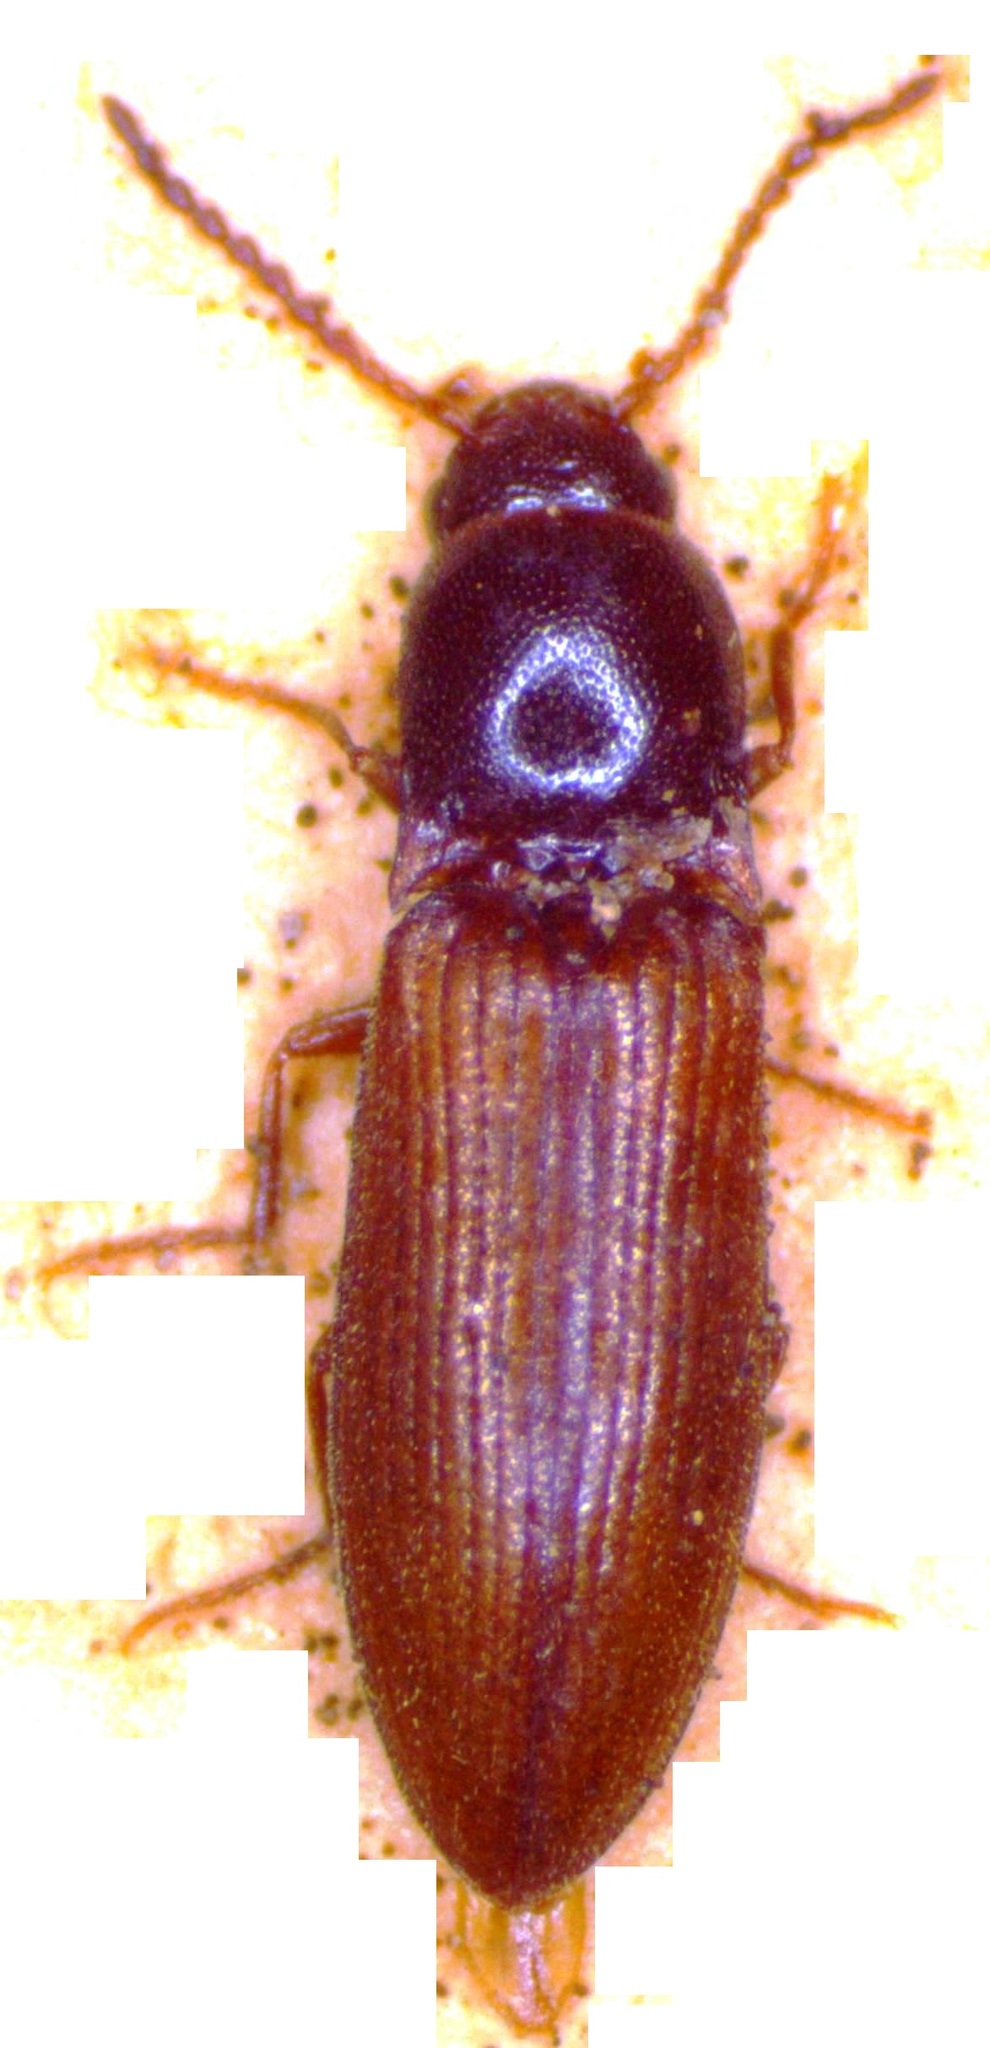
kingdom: Animalia
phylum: Arthropoda
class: Insecta
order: Coleoptera
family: Elateridae
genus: Agriotes
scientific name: Agriotes pallidulus
